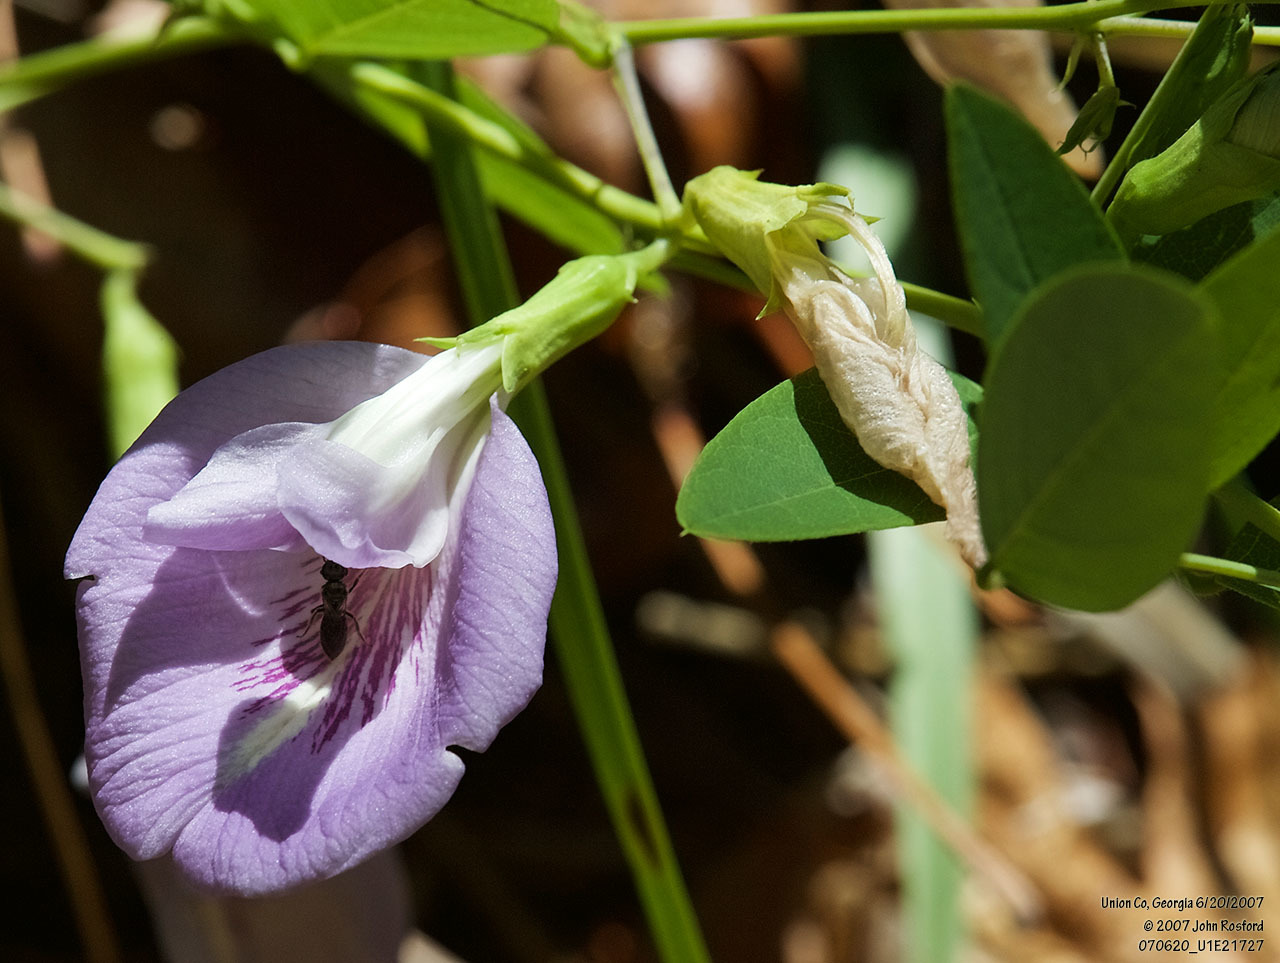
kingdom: Plantae
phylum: Tracheophyta
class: Magnoliopsida
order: Fabales
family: Fabaceae
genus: Clitoria
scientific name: Clitoria mariana
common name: Butterfly-pea
